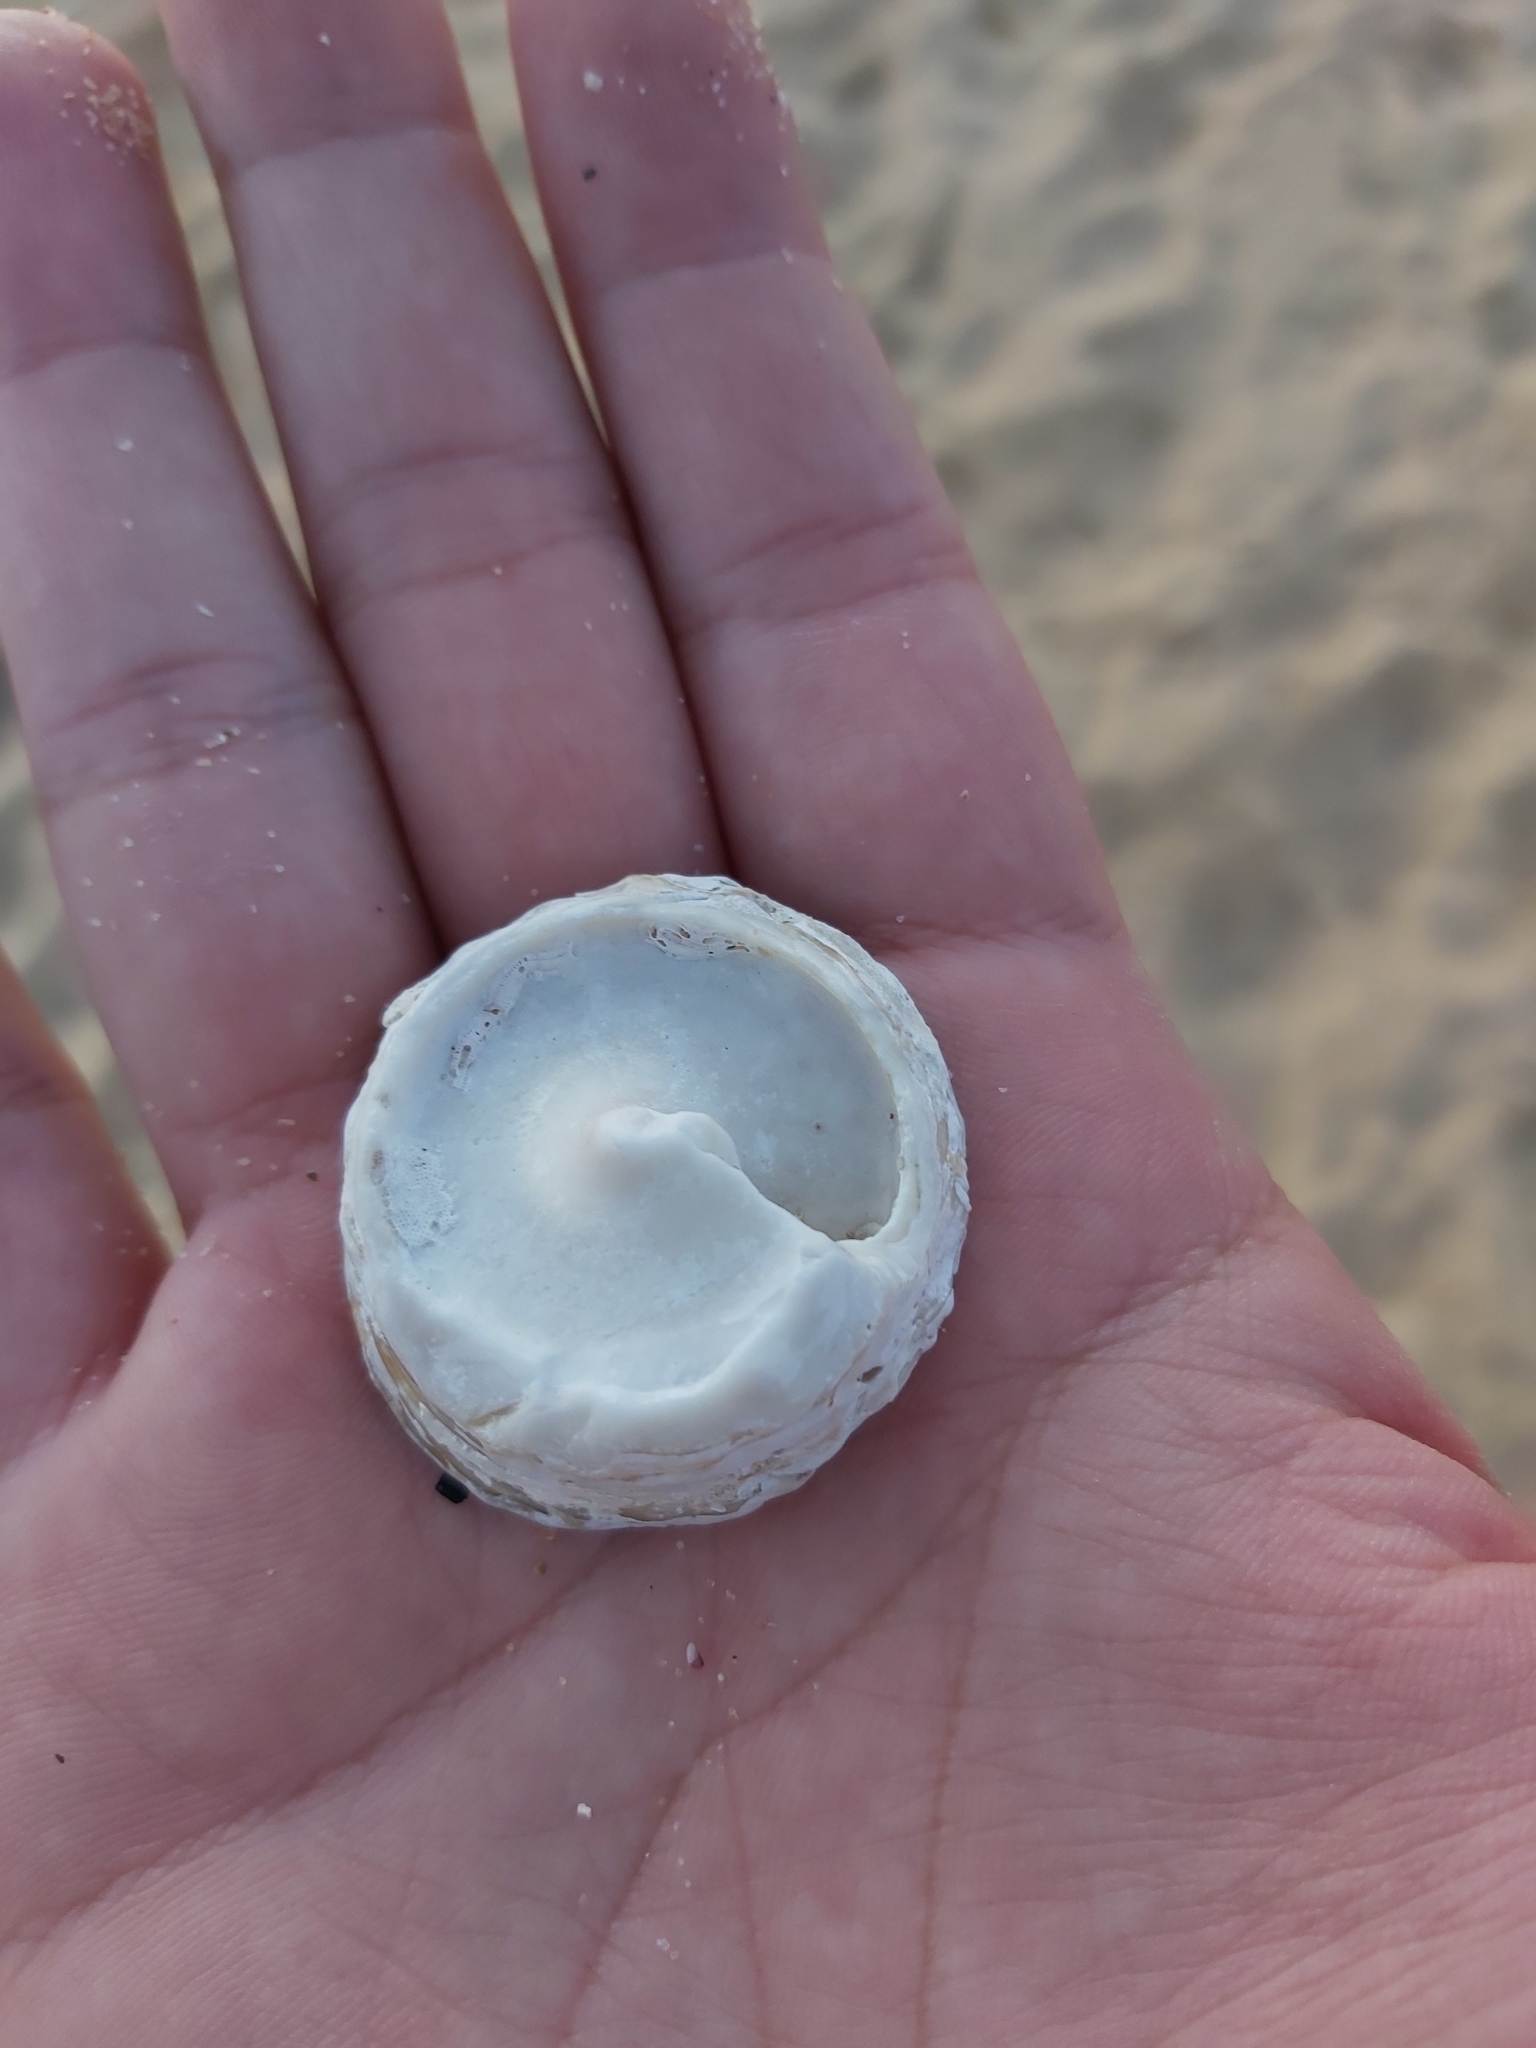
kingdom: Animalia
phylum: Mollusca
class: Gastropoda
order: Trochida
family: Turbinidae
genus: Astralium
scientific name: Astralium tentoriiforme
